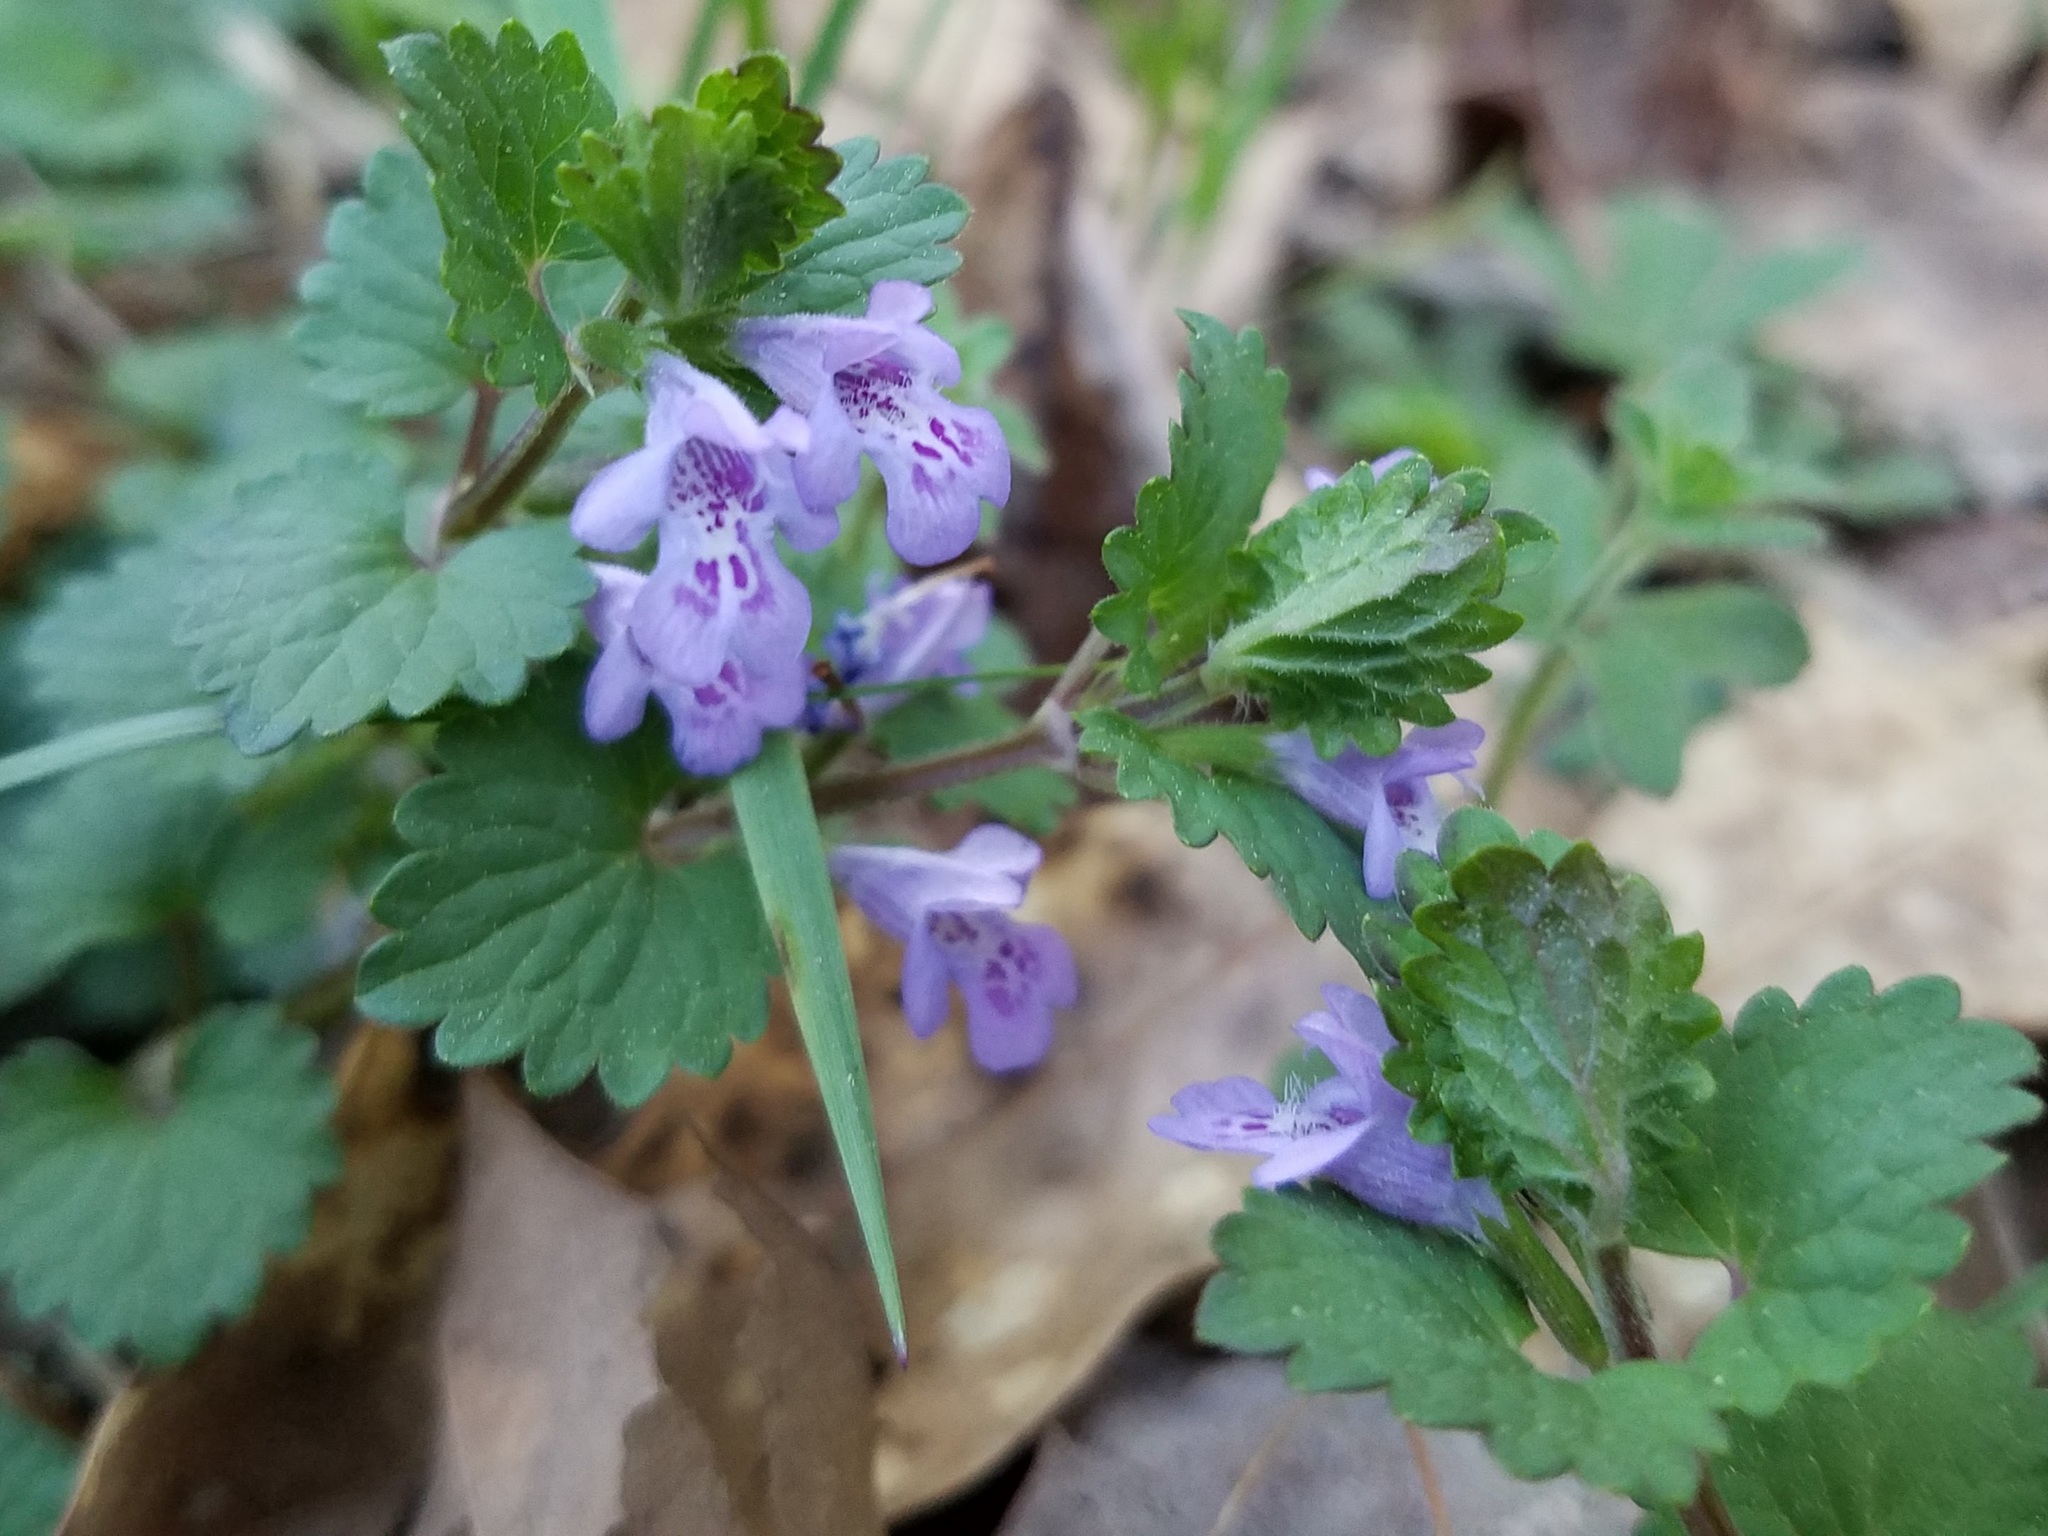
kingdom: Plantae
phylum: Tracheophyta
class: Magnoliopsida
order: Lamiales
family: Lamiaceae
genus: Glechoma
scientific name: Glechoma hederacea
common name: Ground ivy
